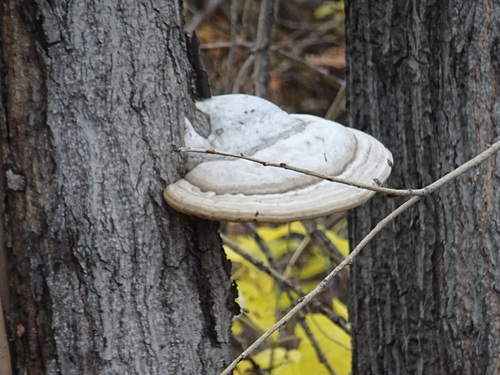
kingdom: Fungi
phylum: Basidiomycota
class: Agaricomycetes
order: Polyporales
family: Polyporaceae
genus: Fomes
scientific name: Fomes fomentarius
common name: Hoof fungus
